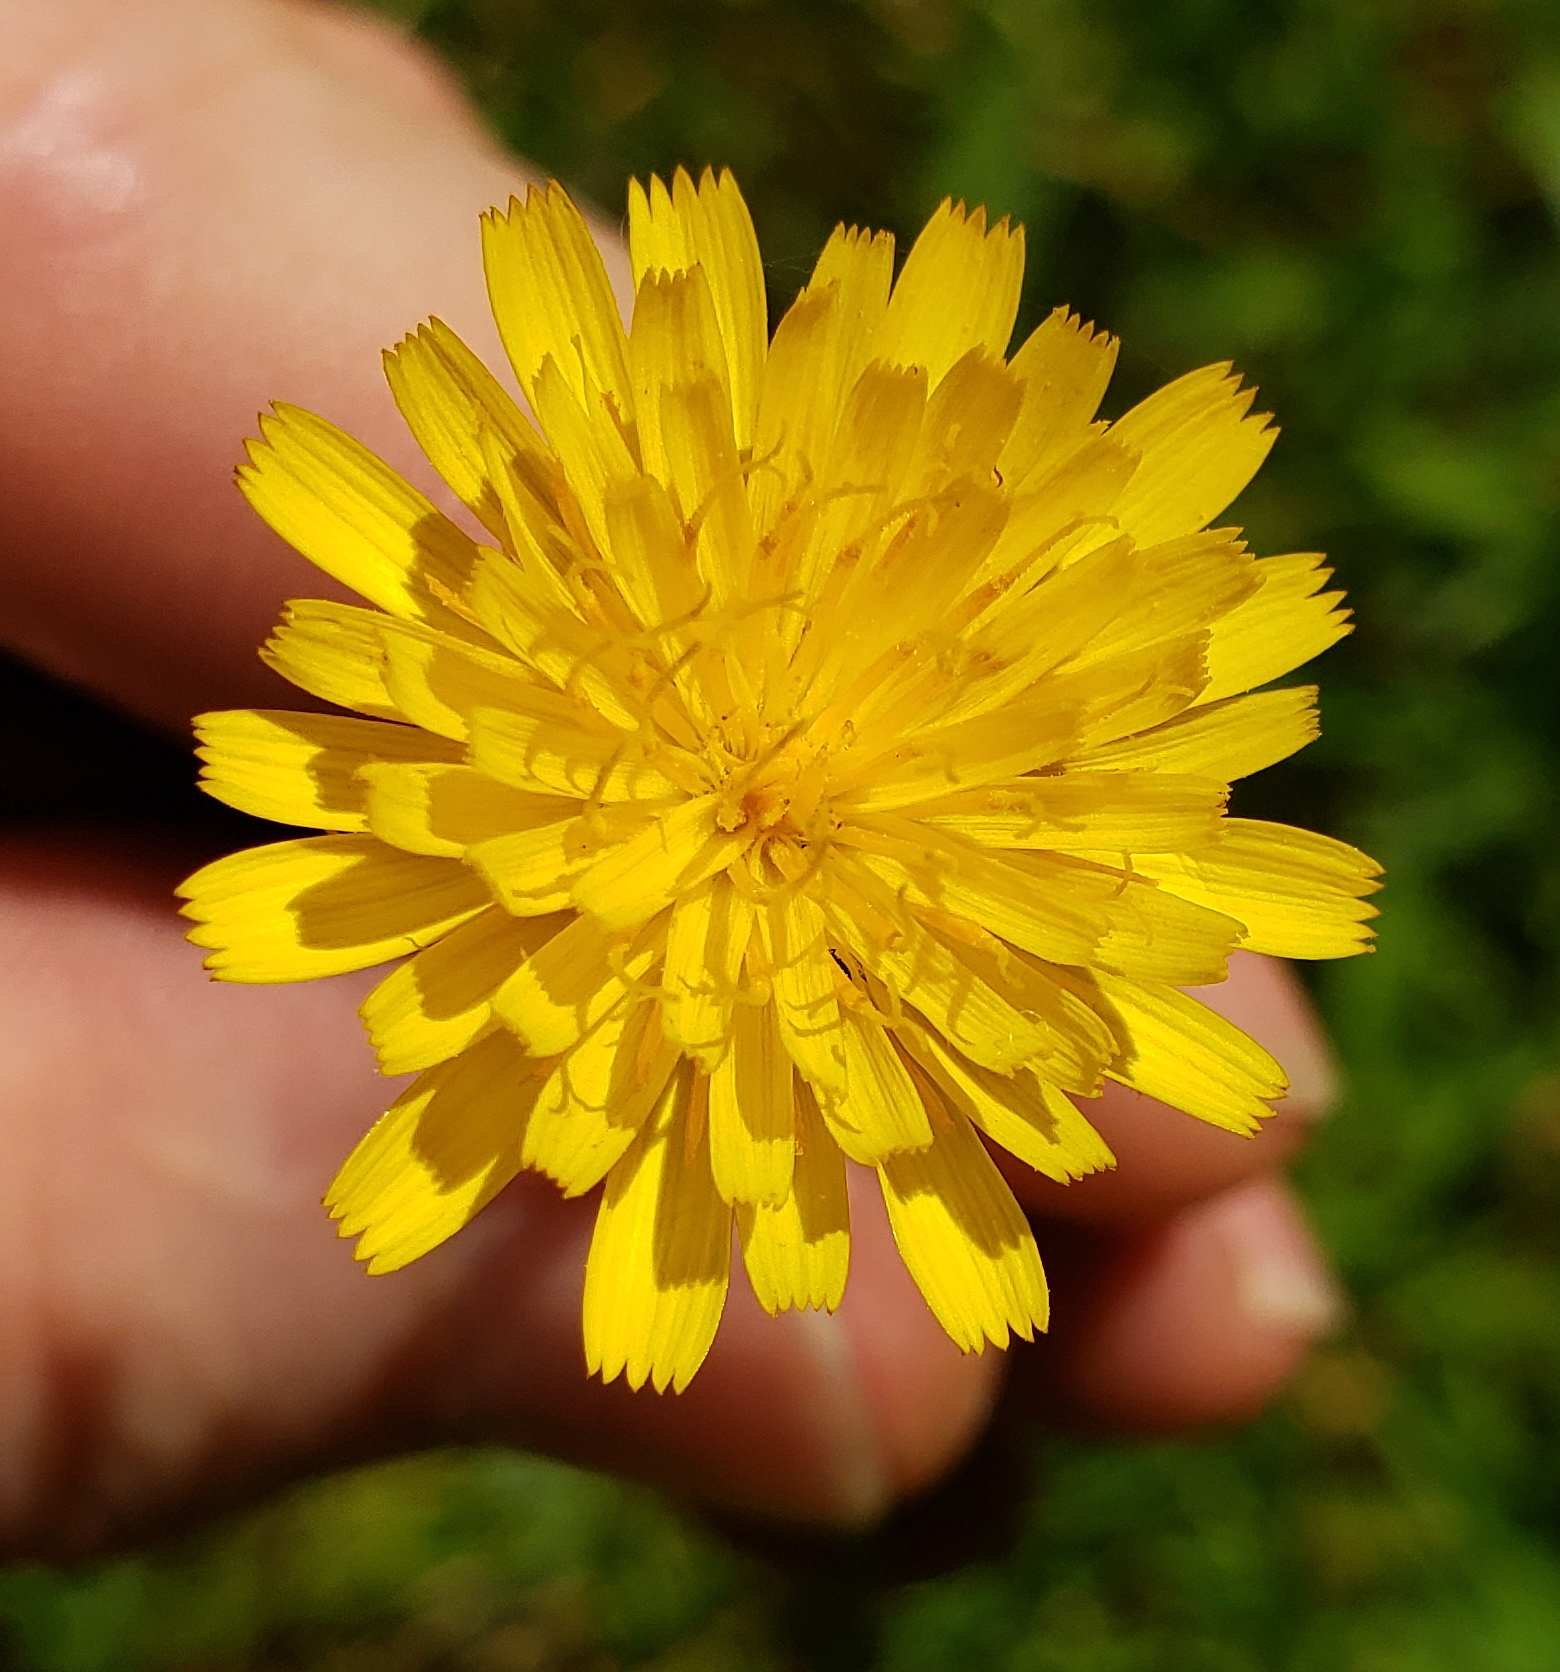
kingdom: Plantae
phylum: Tracheophyta
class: Magnoliopsida
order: Asterales
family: Asteraceae
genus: Hypochaeris
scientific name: Hypochaeris radicata
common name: Flatweed
